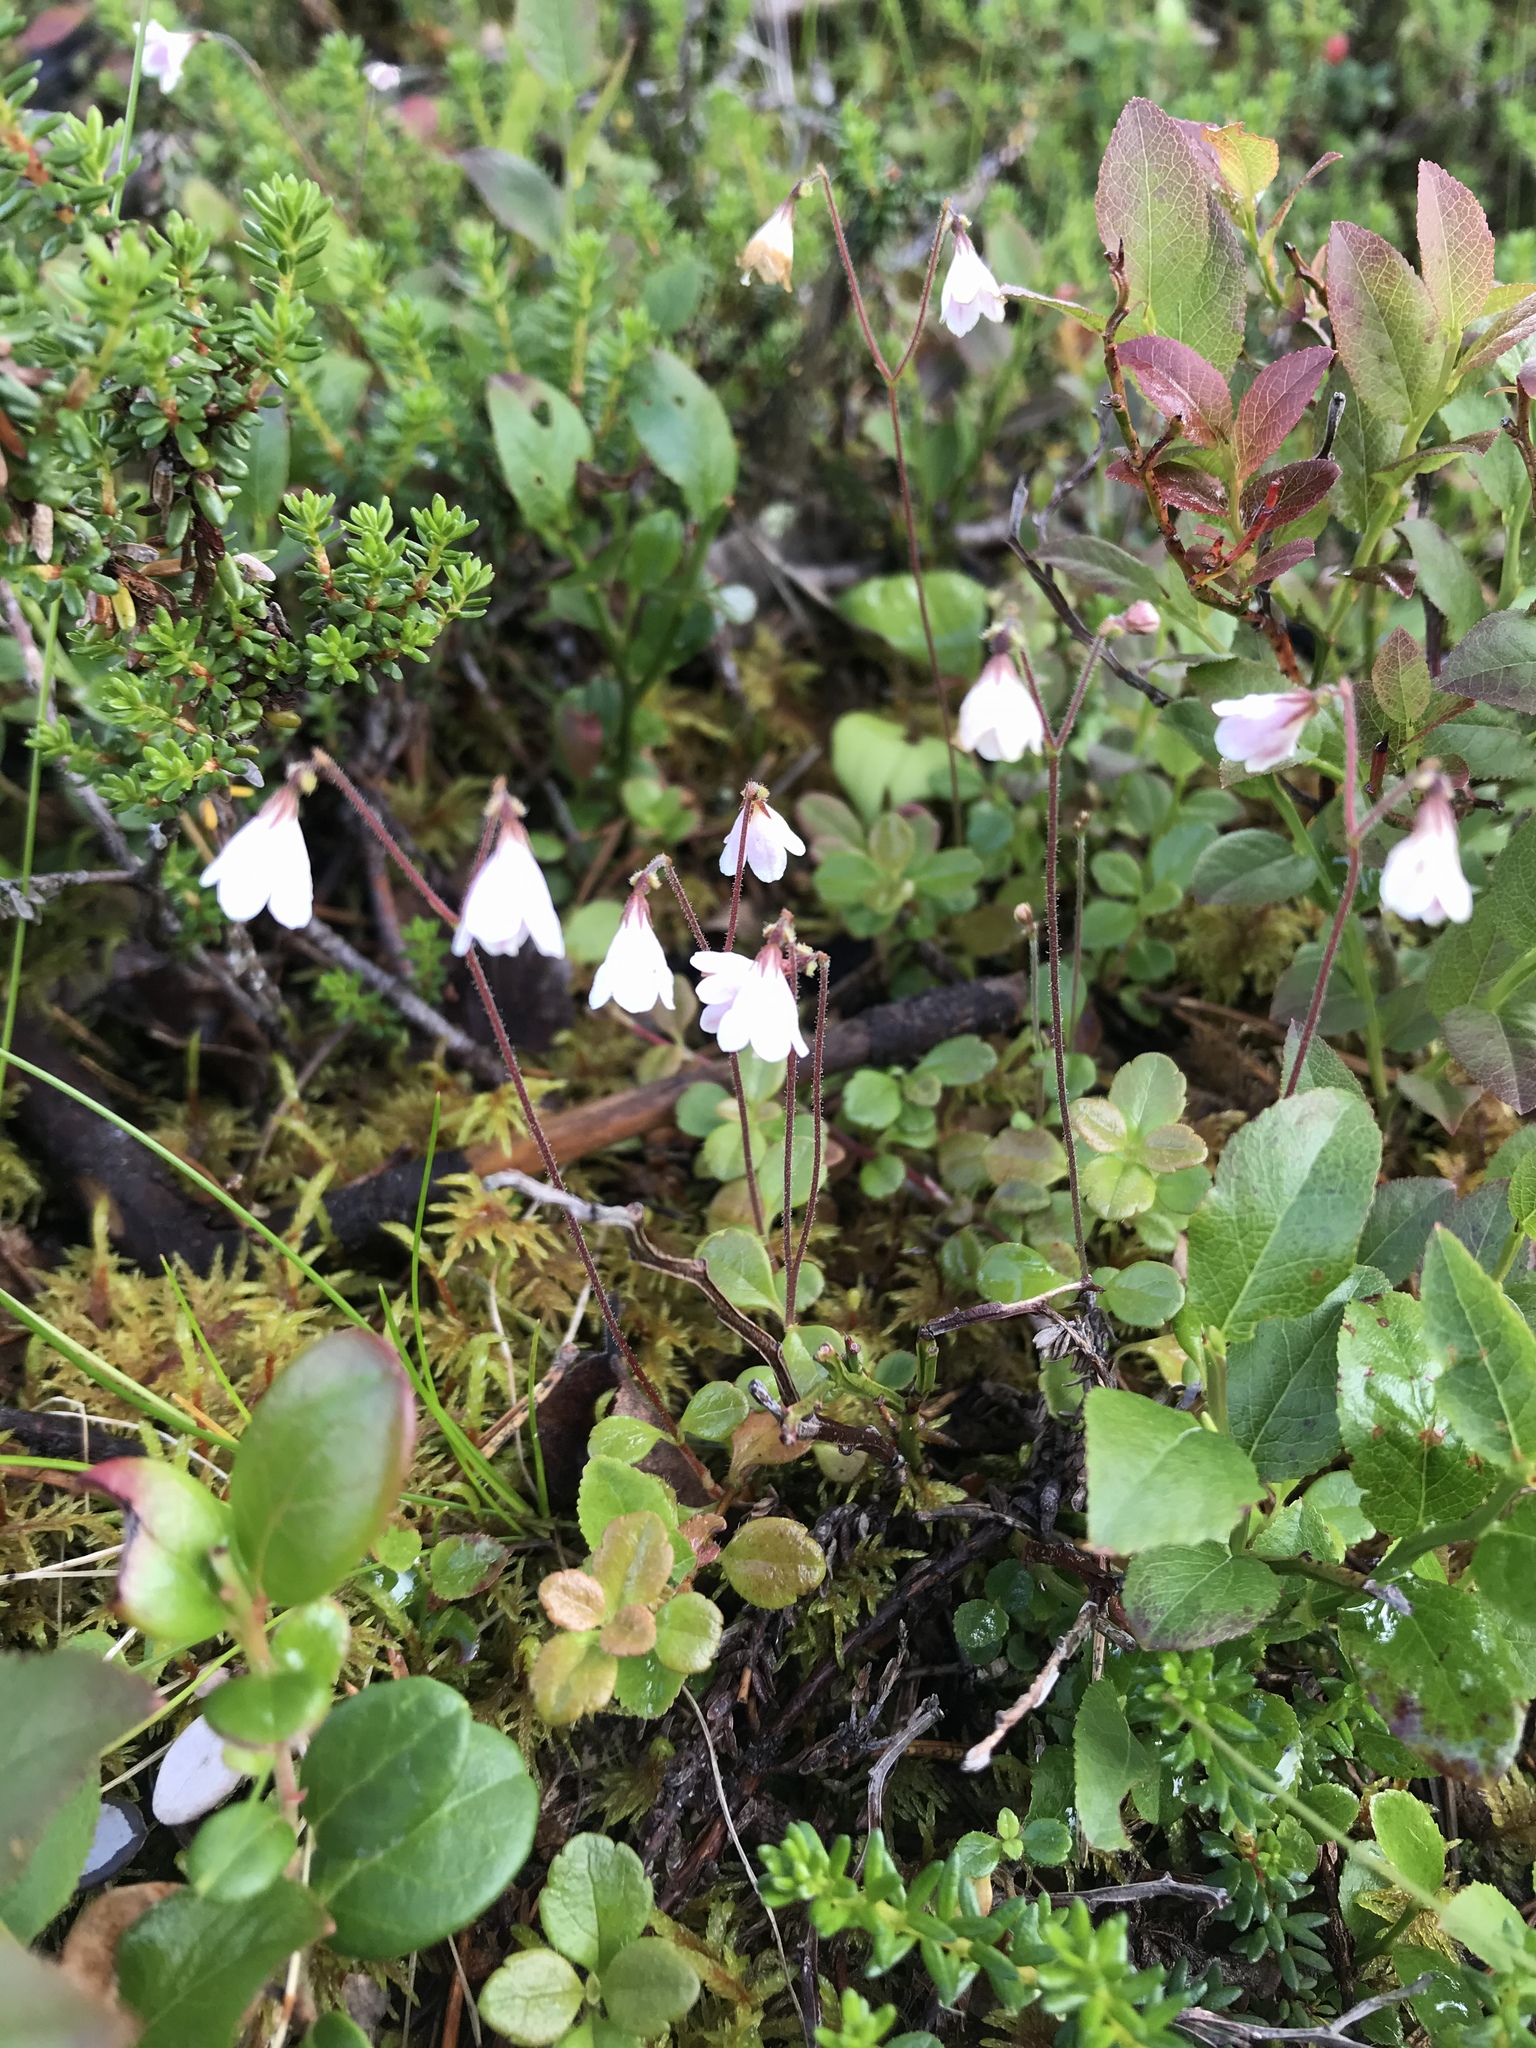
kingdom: Plantae
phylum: Tracheophyta
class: Magnoliopsida
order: Dipsacales
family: Caprifoliaceae
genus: Linnaea
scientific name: Linnaea borealis
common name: Twinflower
